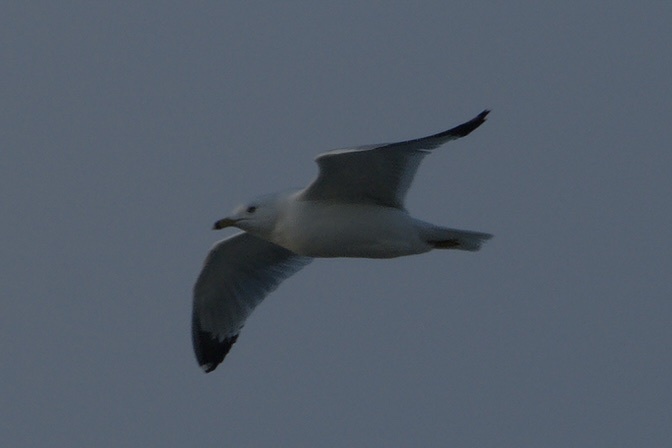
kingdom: Animalia
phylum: Chordata
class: Aves
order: Charadriiformes
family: Laridae
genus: Larus
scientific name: Larus delawarensis
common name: Ring-billed gull
